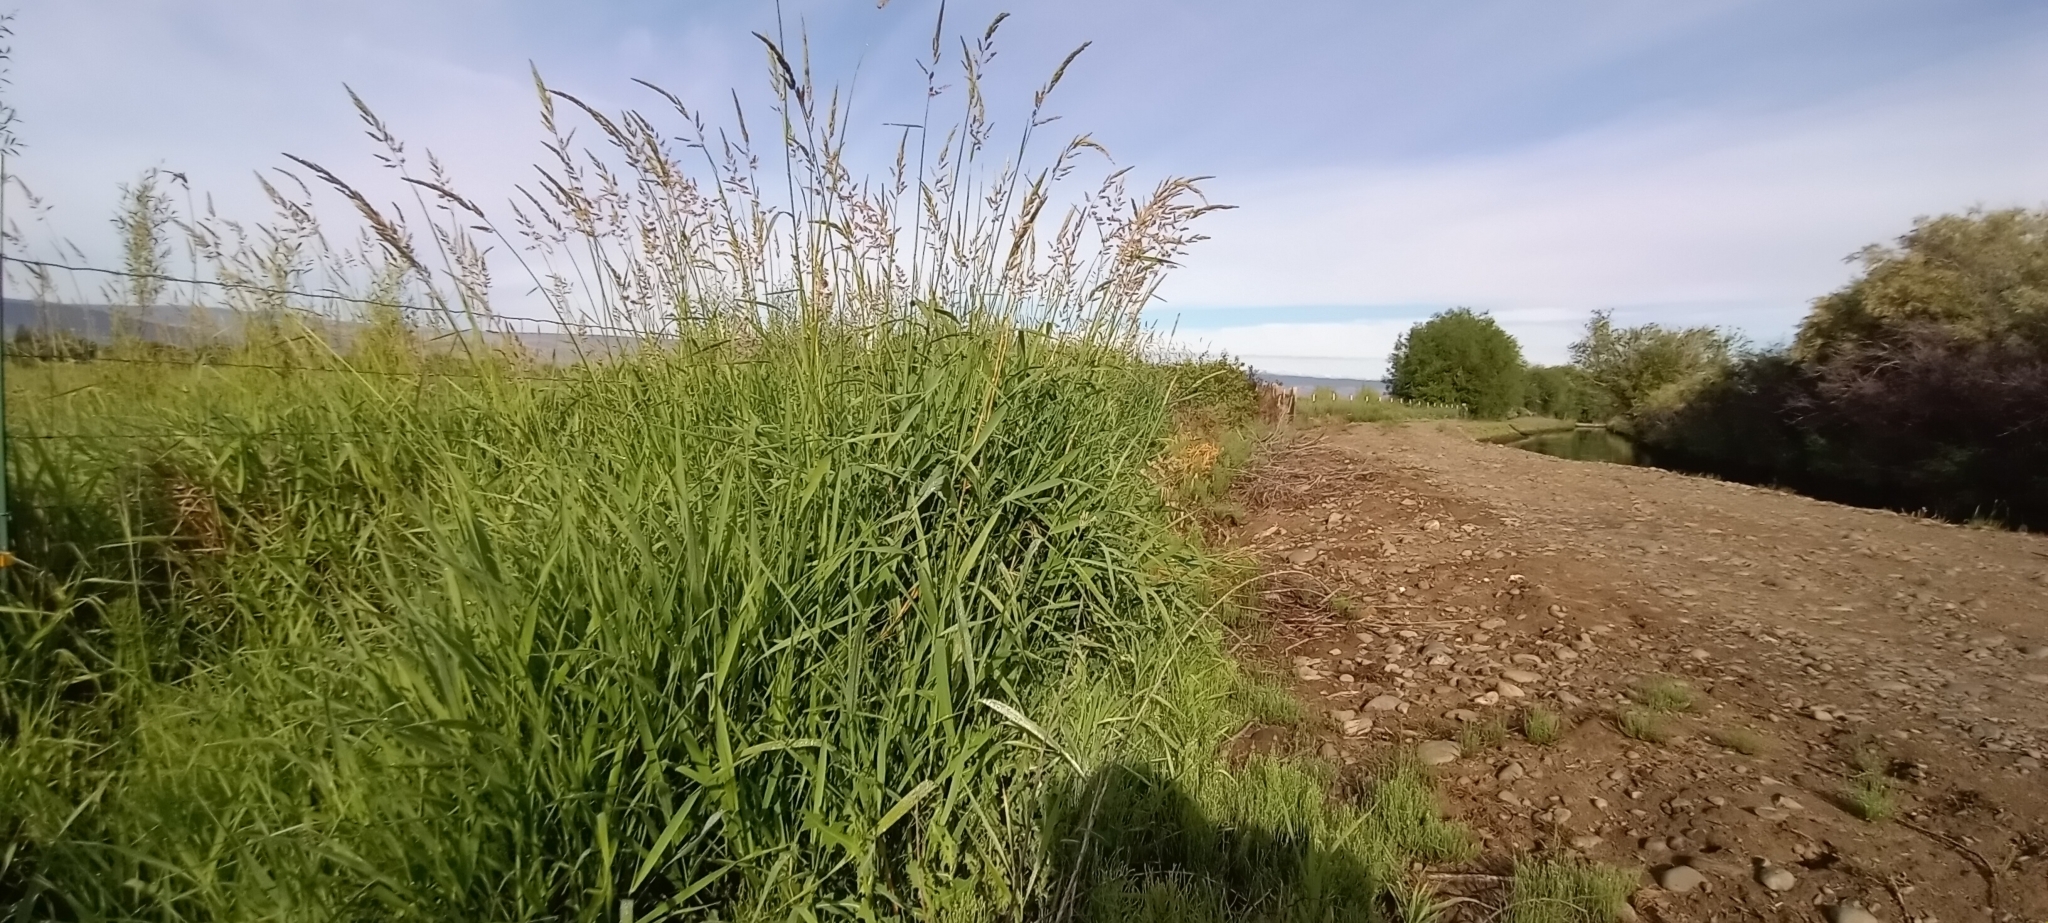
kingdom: Plantae
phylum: Tracheophyta
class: Liliopsida
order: Poales
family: Poaceae
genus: Phalaris
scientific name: Phalaris arundinacea
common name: Reed canary-grass
